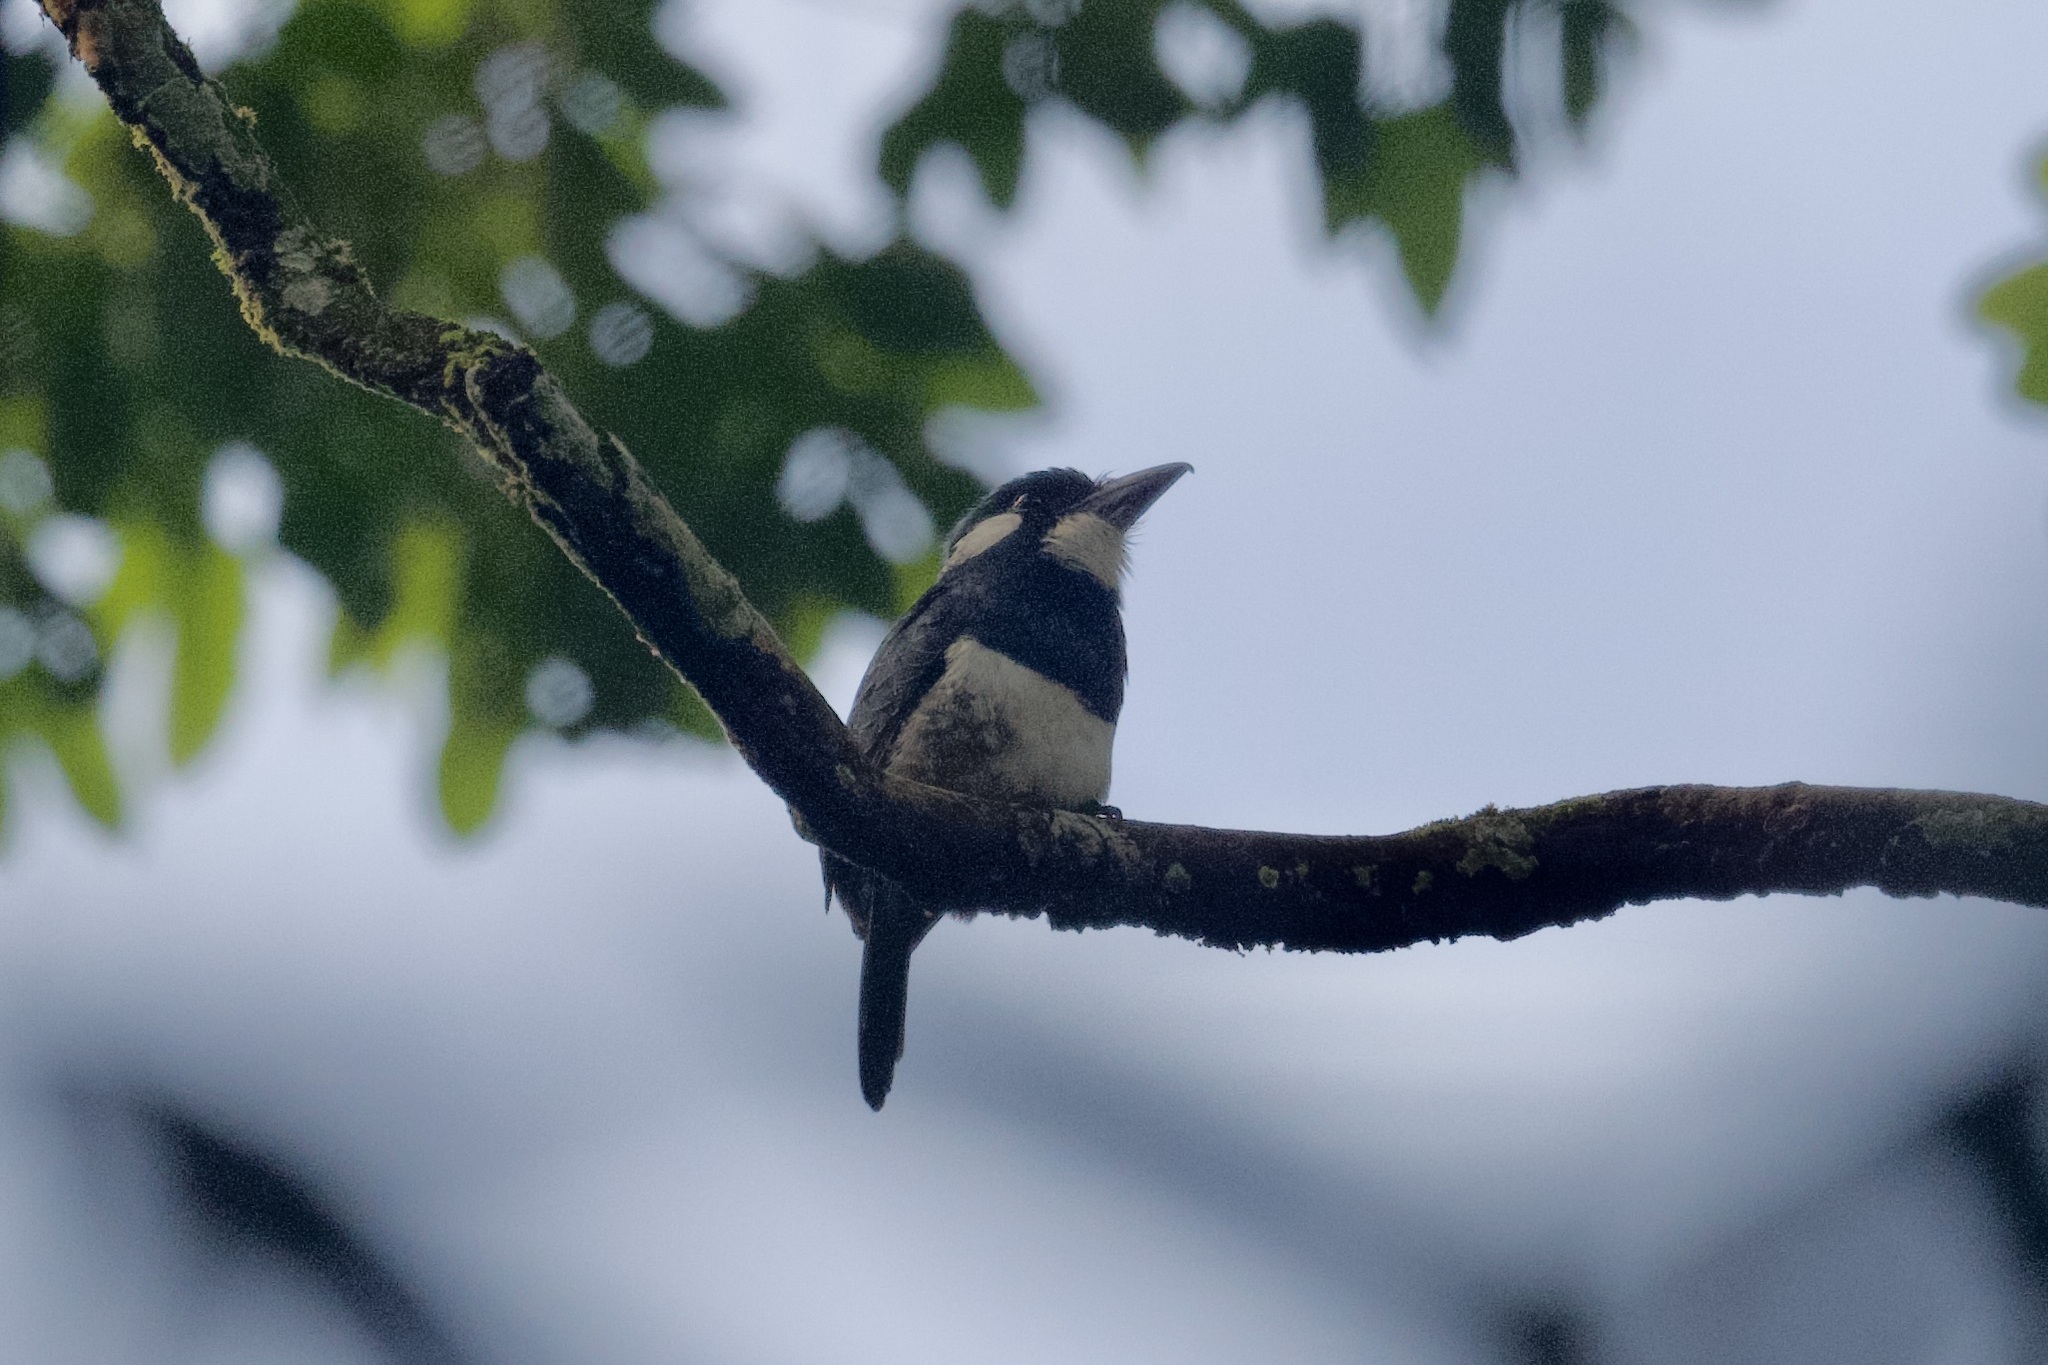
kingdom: Animalia
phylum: Chordata
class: Aves
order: Piciformes
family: Bucconidae
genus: Notharchus
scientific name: Notharchus pectoralis
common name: Black-breasted puffbird
